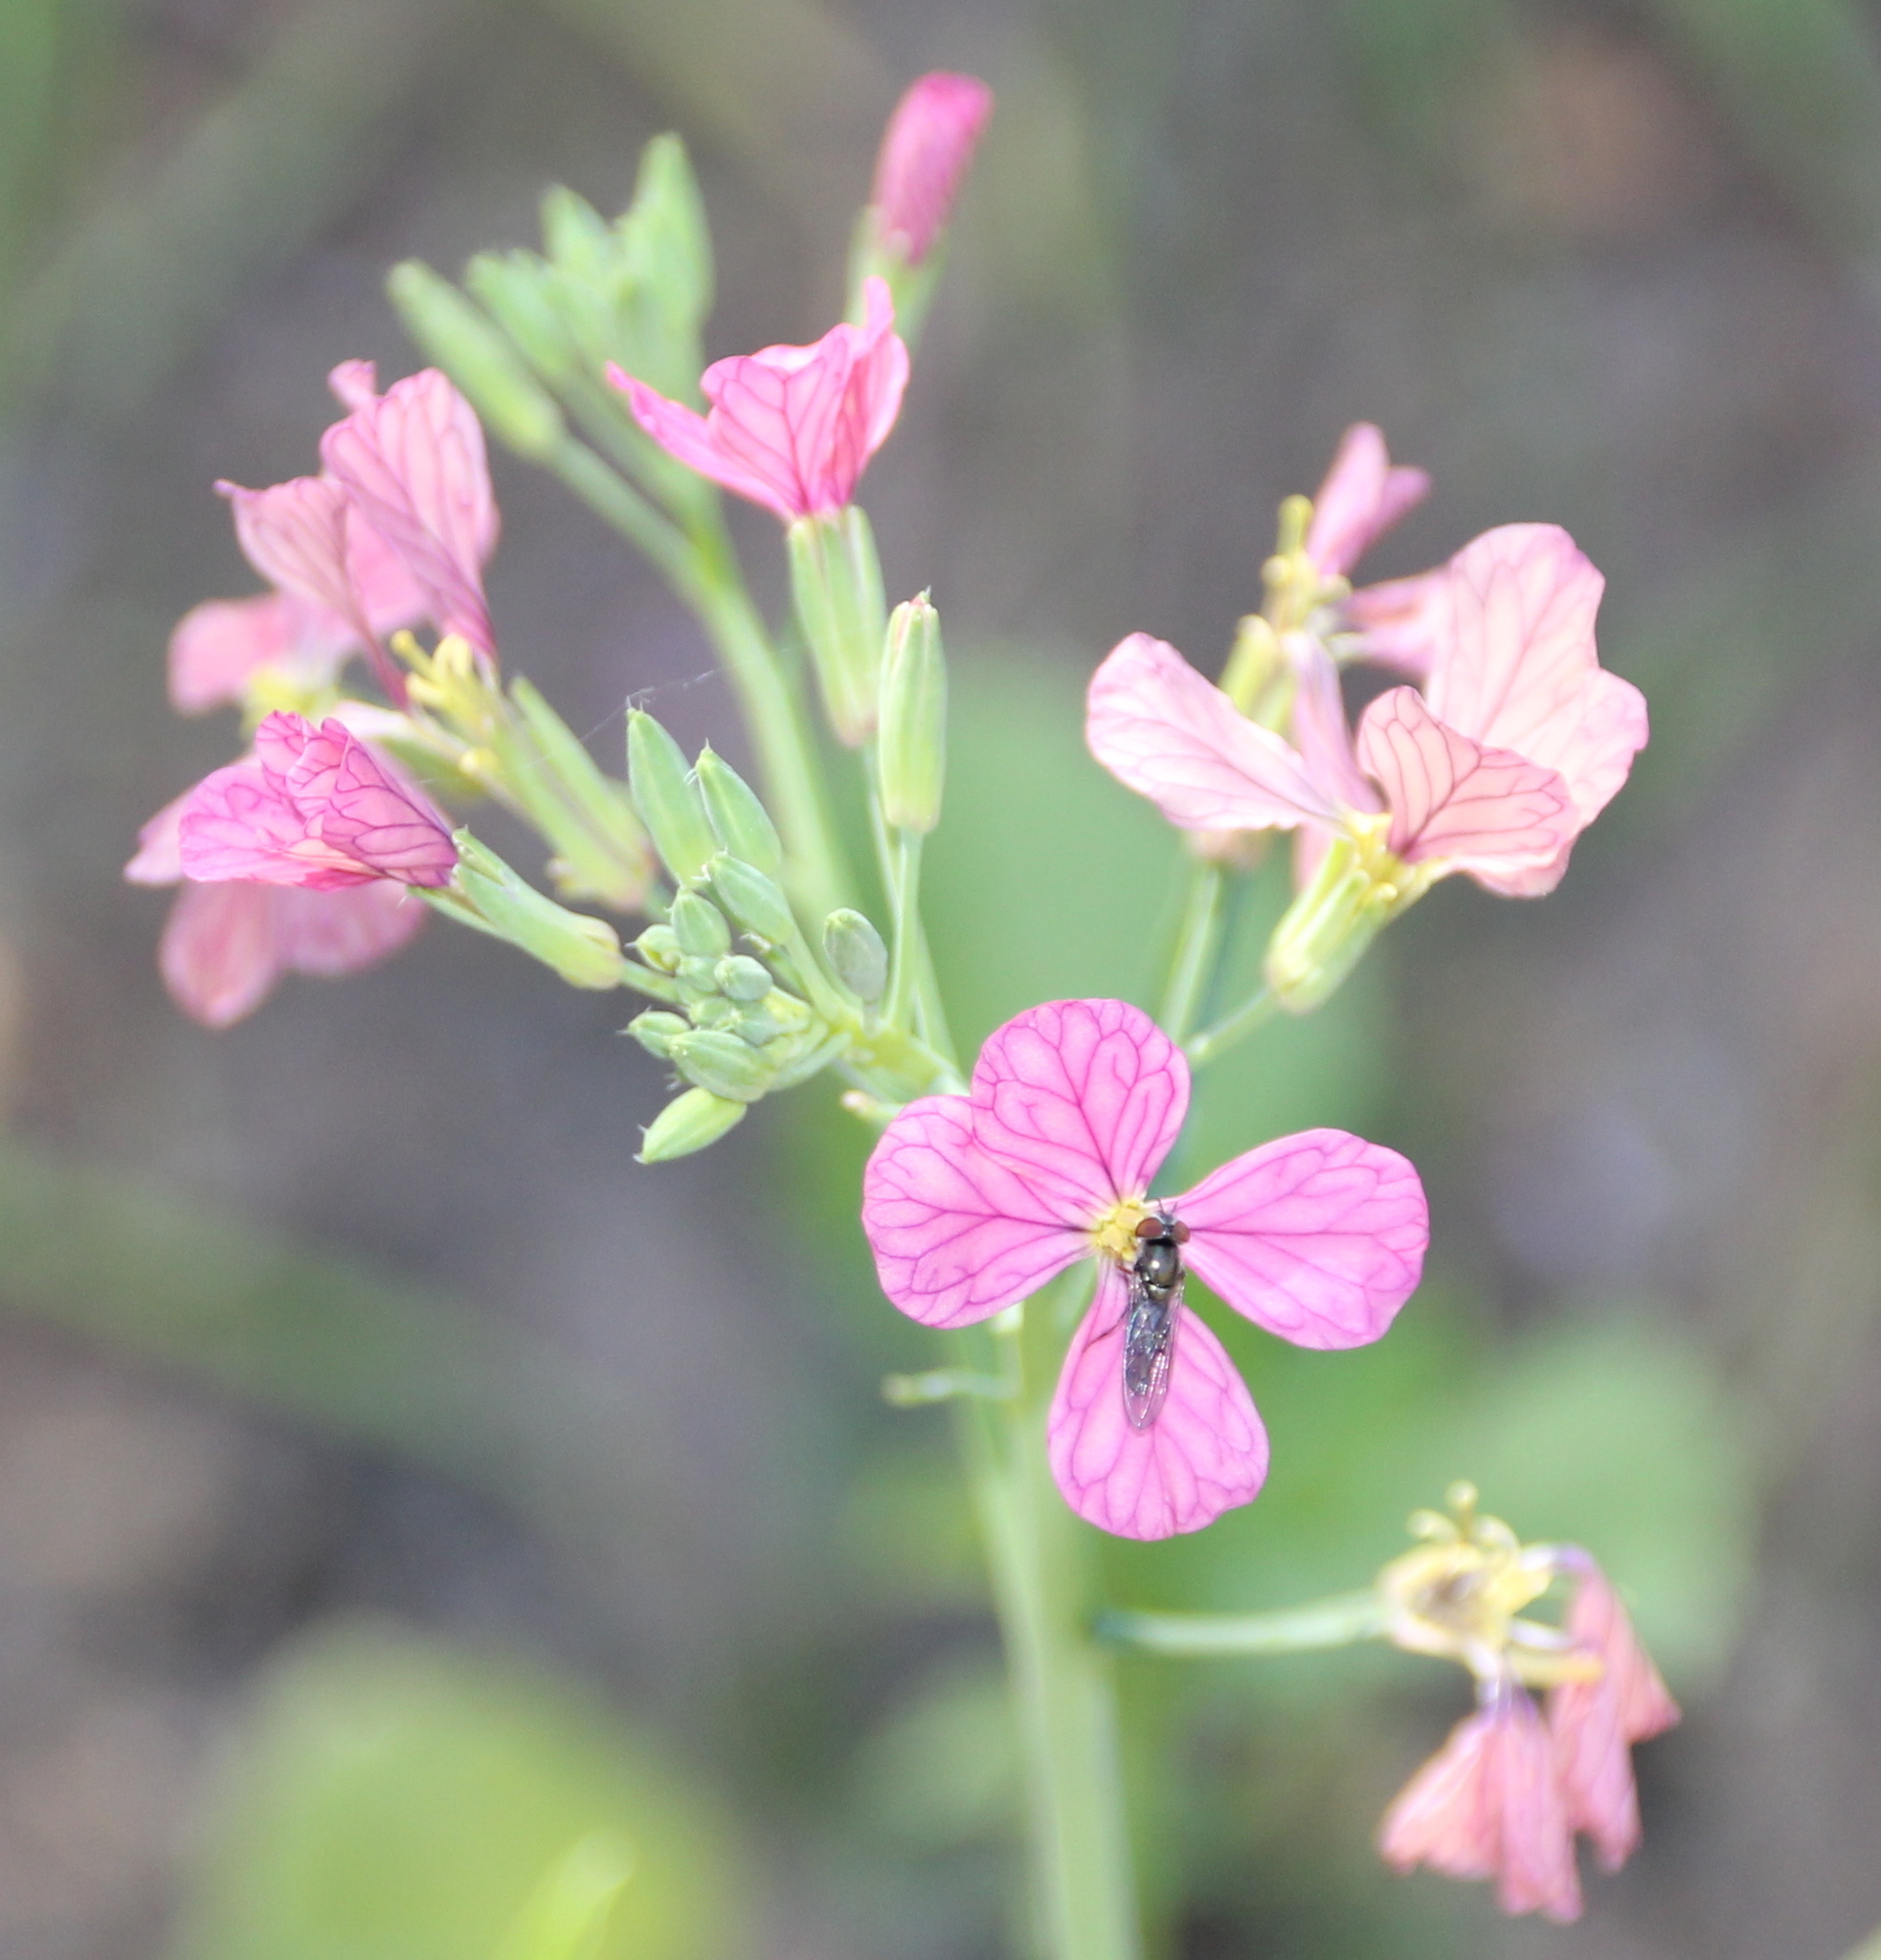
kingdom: Plantae
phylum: Tracheophyta
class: Magnoliopsida
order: Brassicales
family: Brassicaceae
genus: Raphanus
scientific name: Raphanus sativus
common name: Cultivated radish
